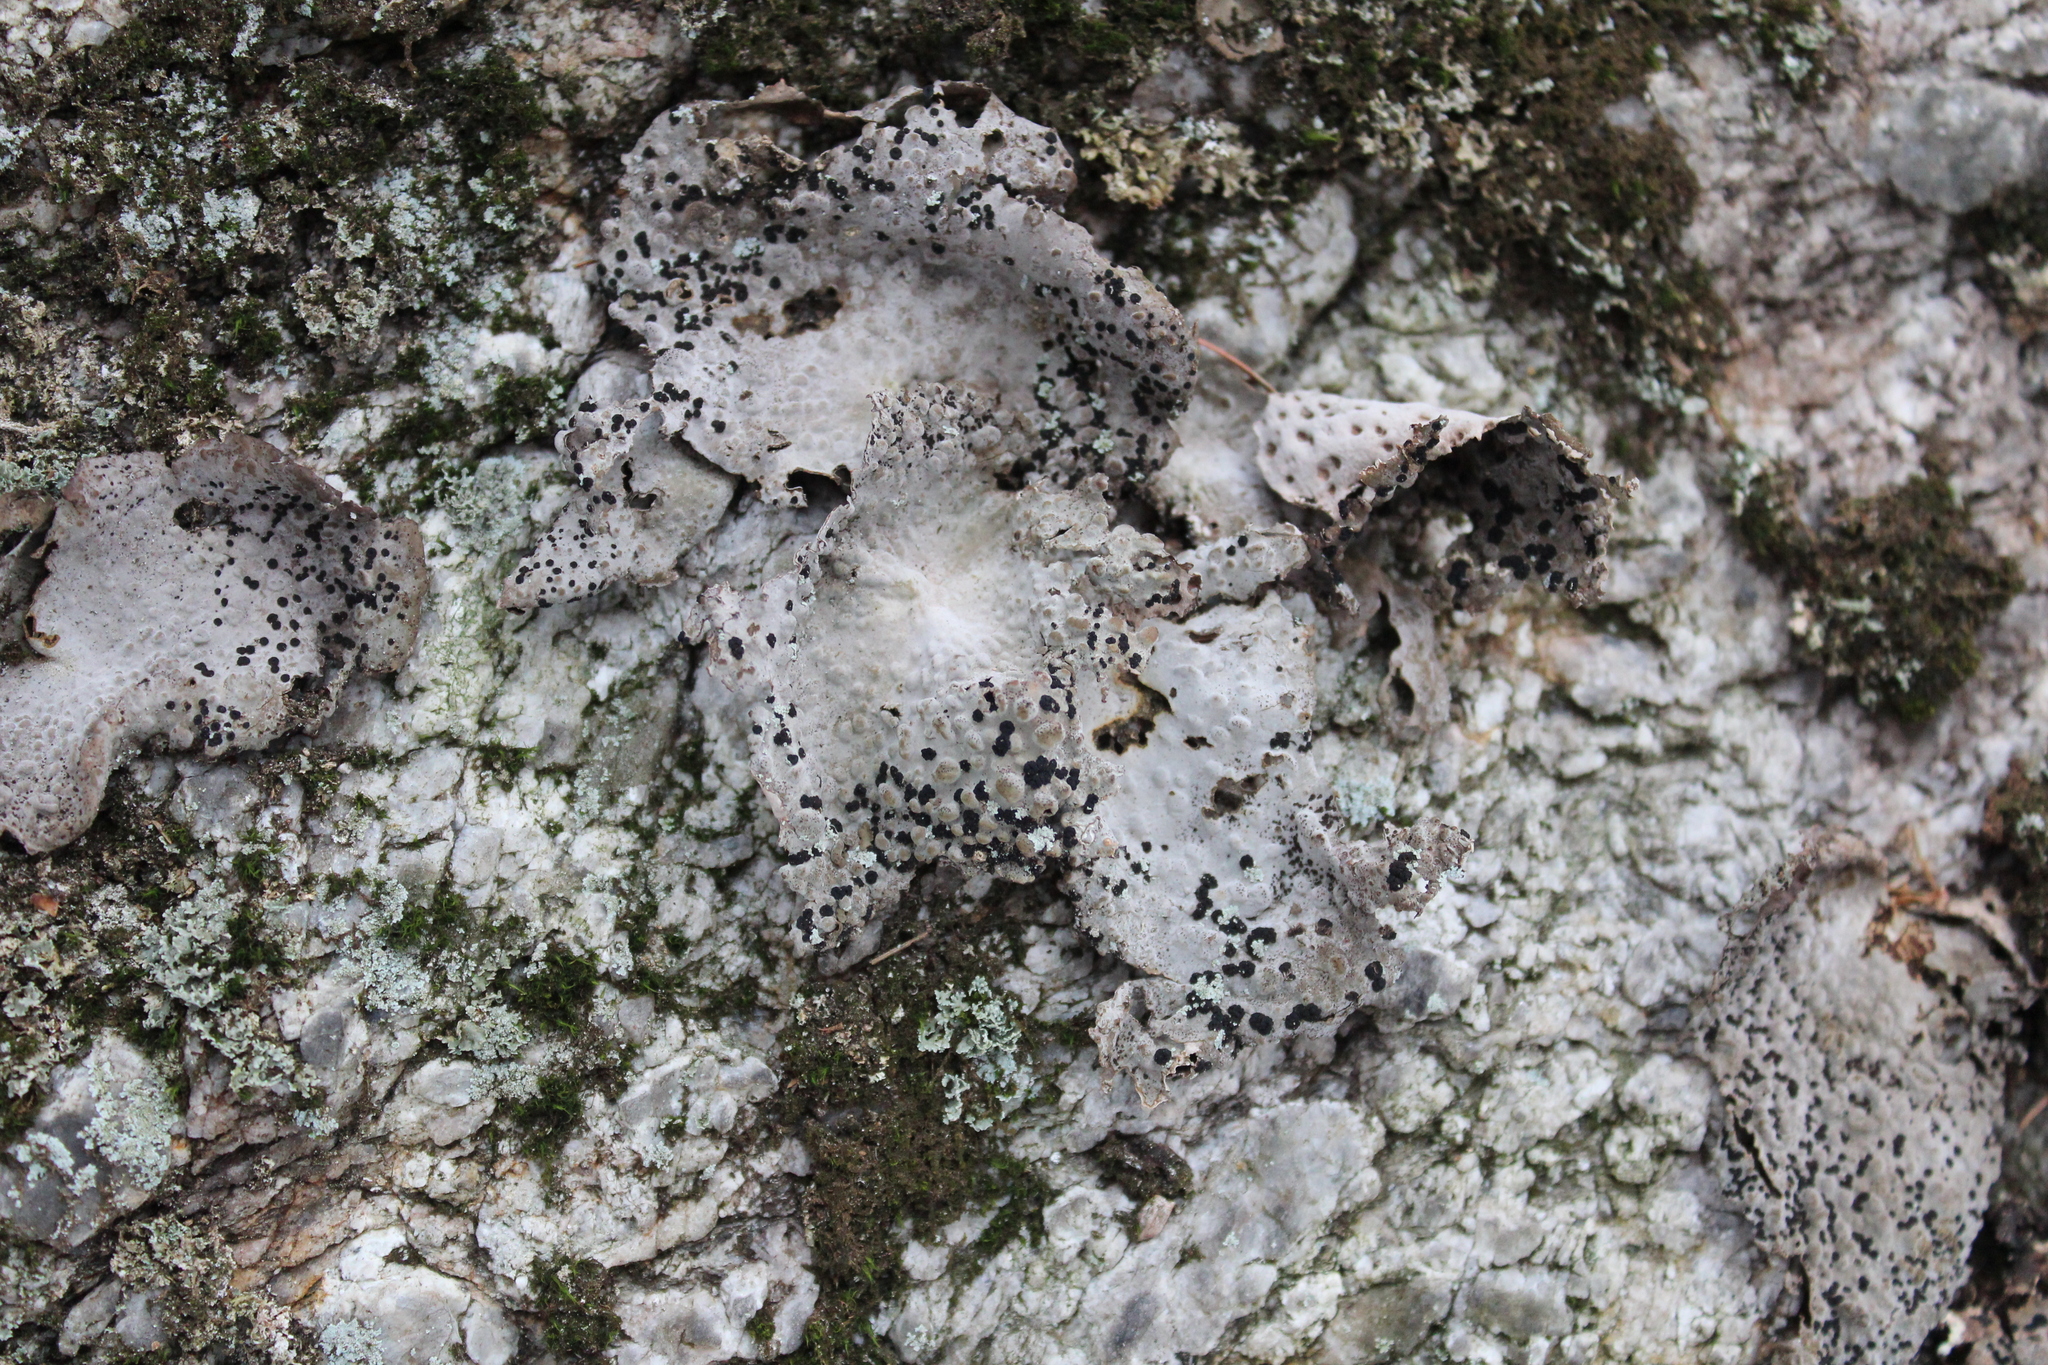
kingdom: Fungi
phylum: Ascomycota
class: Lecanoromycetes
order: Umbilicariales
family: Umbilicariaceae
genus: Lasallia
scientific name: Lasallia papulosa
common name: Common toadskin lichen
